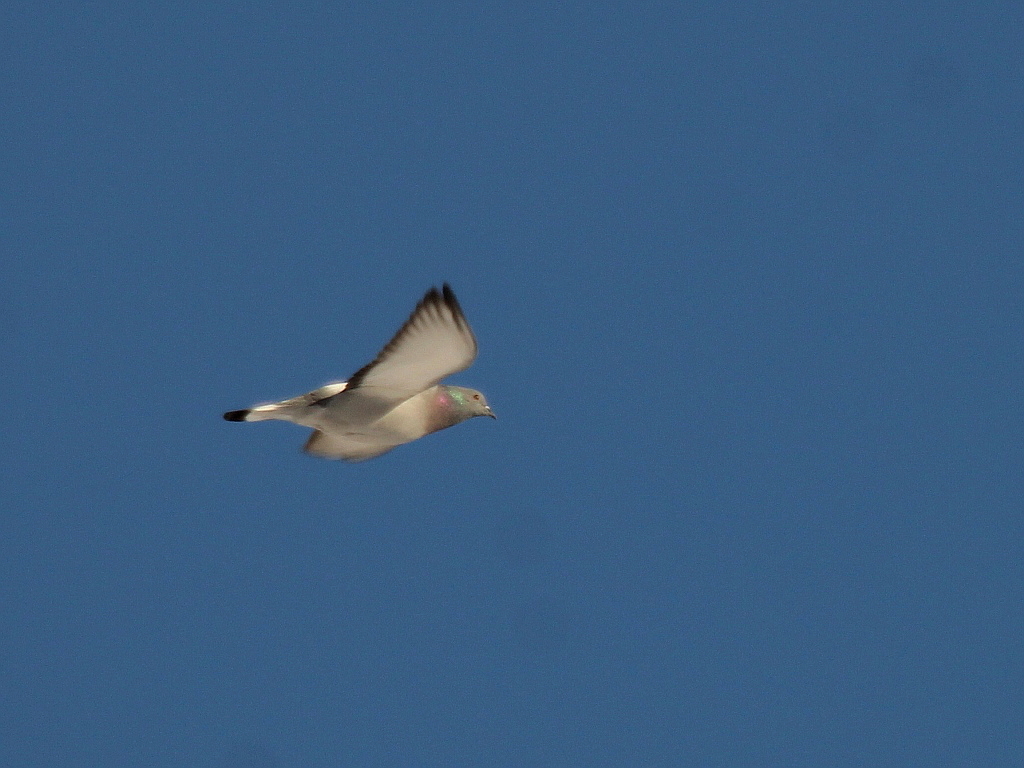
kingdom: Animalia
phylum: Chordata
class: Aves
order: Columbiformes
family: Columbidae
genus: Columba
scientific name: Columba rupestris
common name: Hill pigeon
